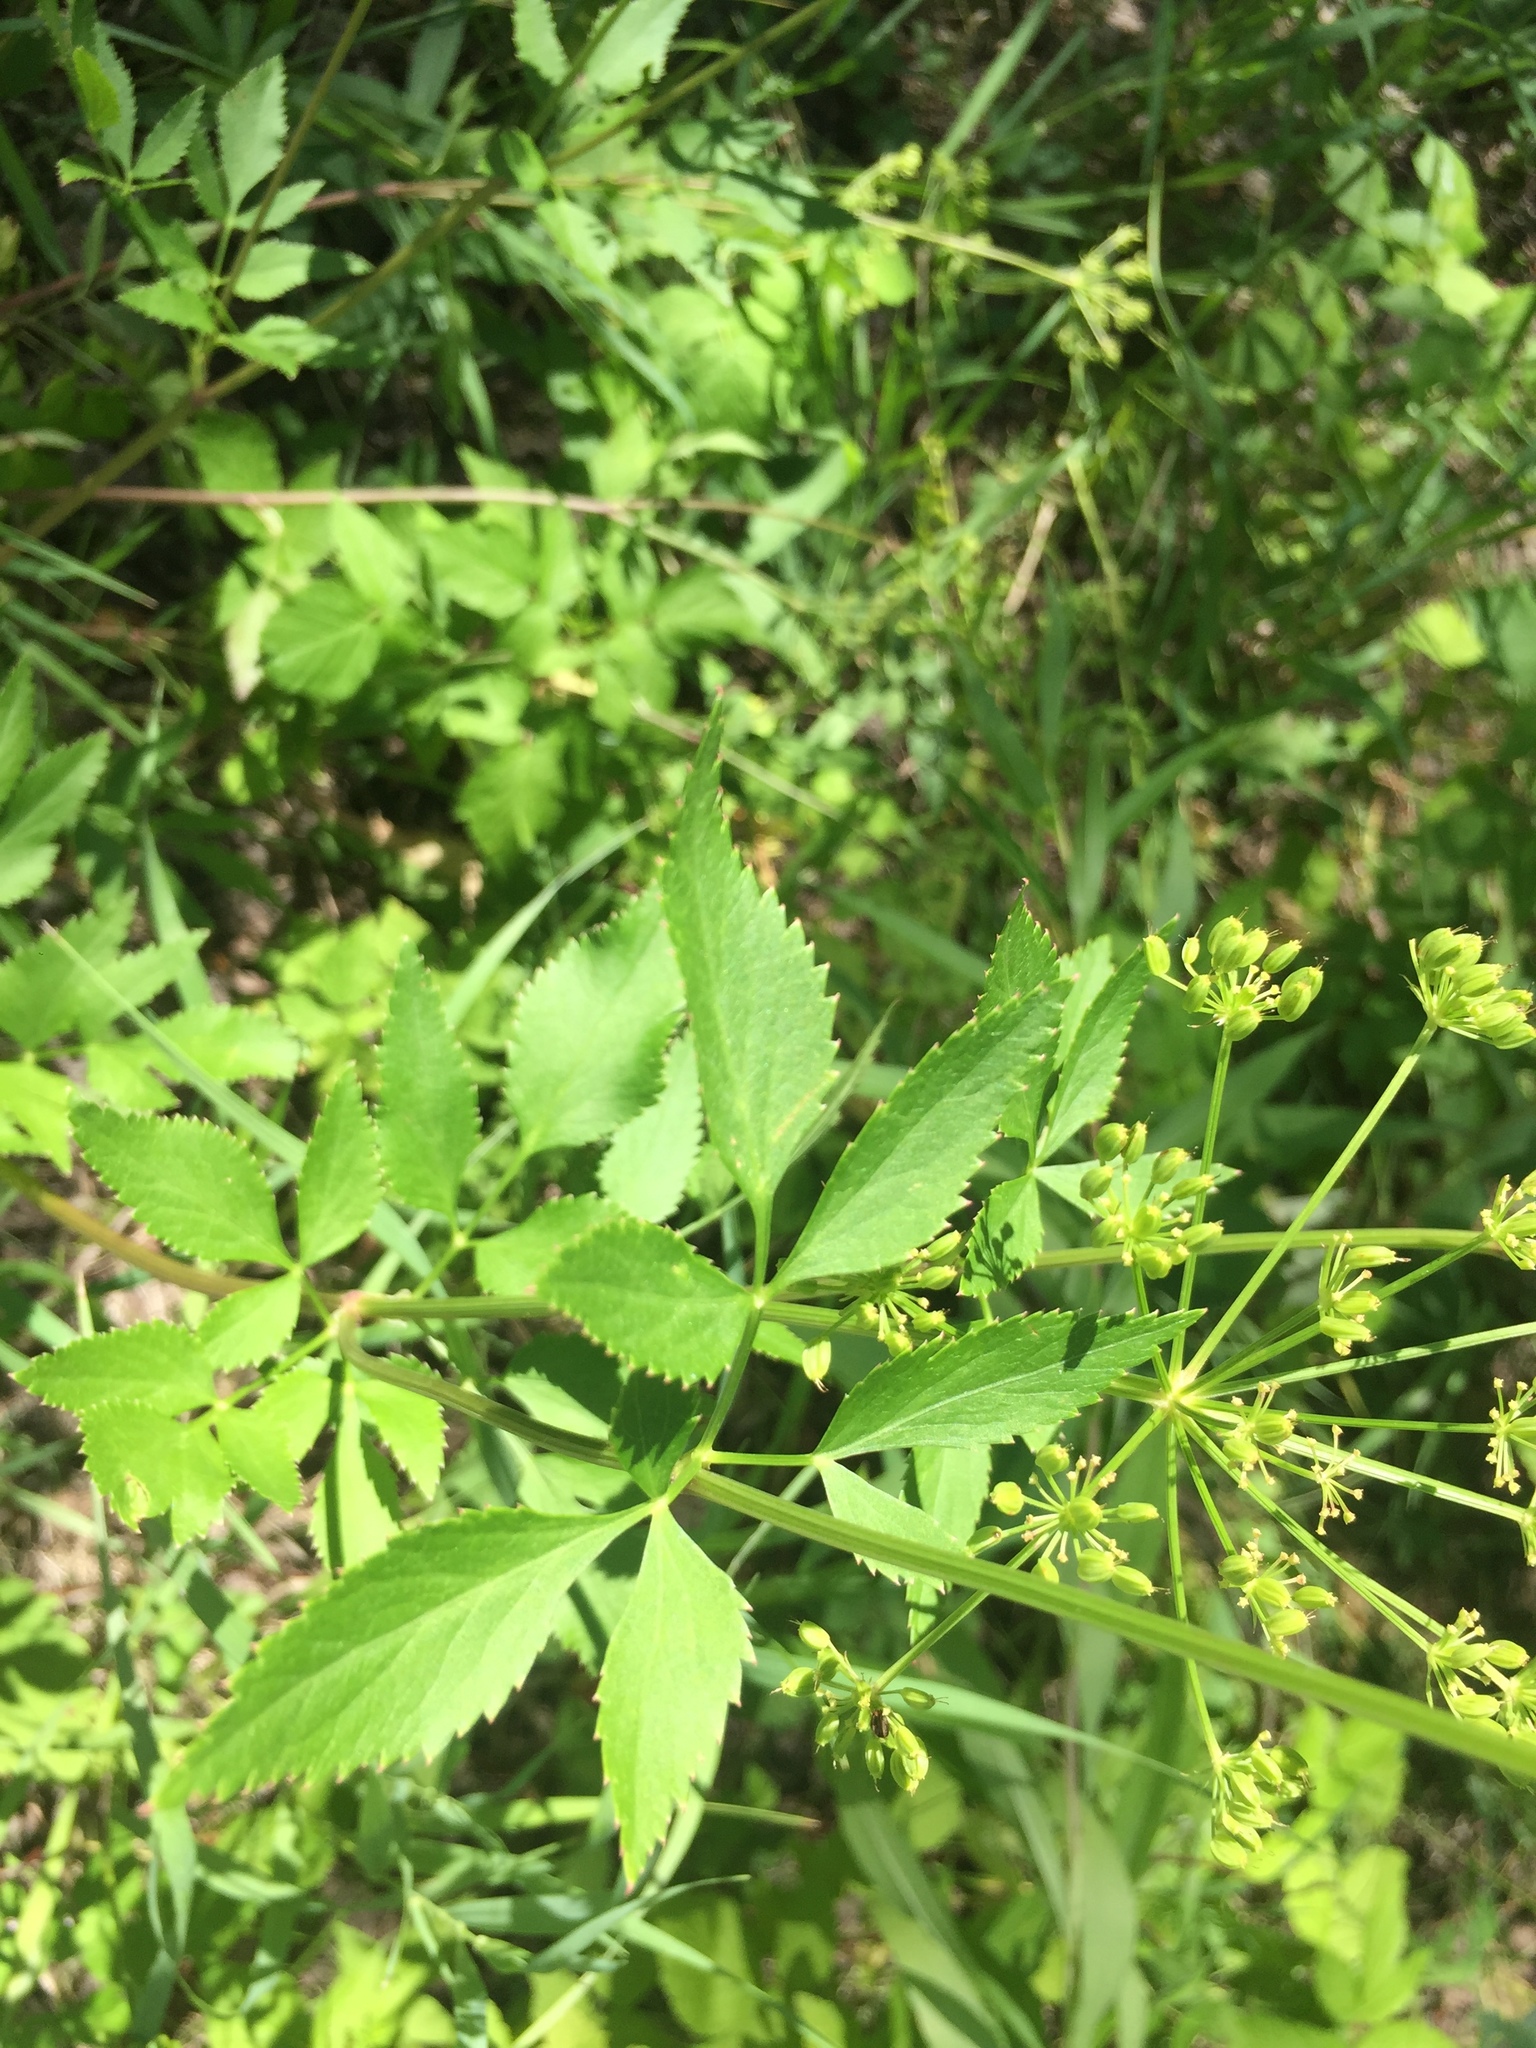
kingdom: Plantae
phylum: Tracheophyta
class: Magnoliopsida
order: Apiales
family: Apiaceae
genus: Zizia
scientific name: Zizia aurea
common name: Golden alexanders
